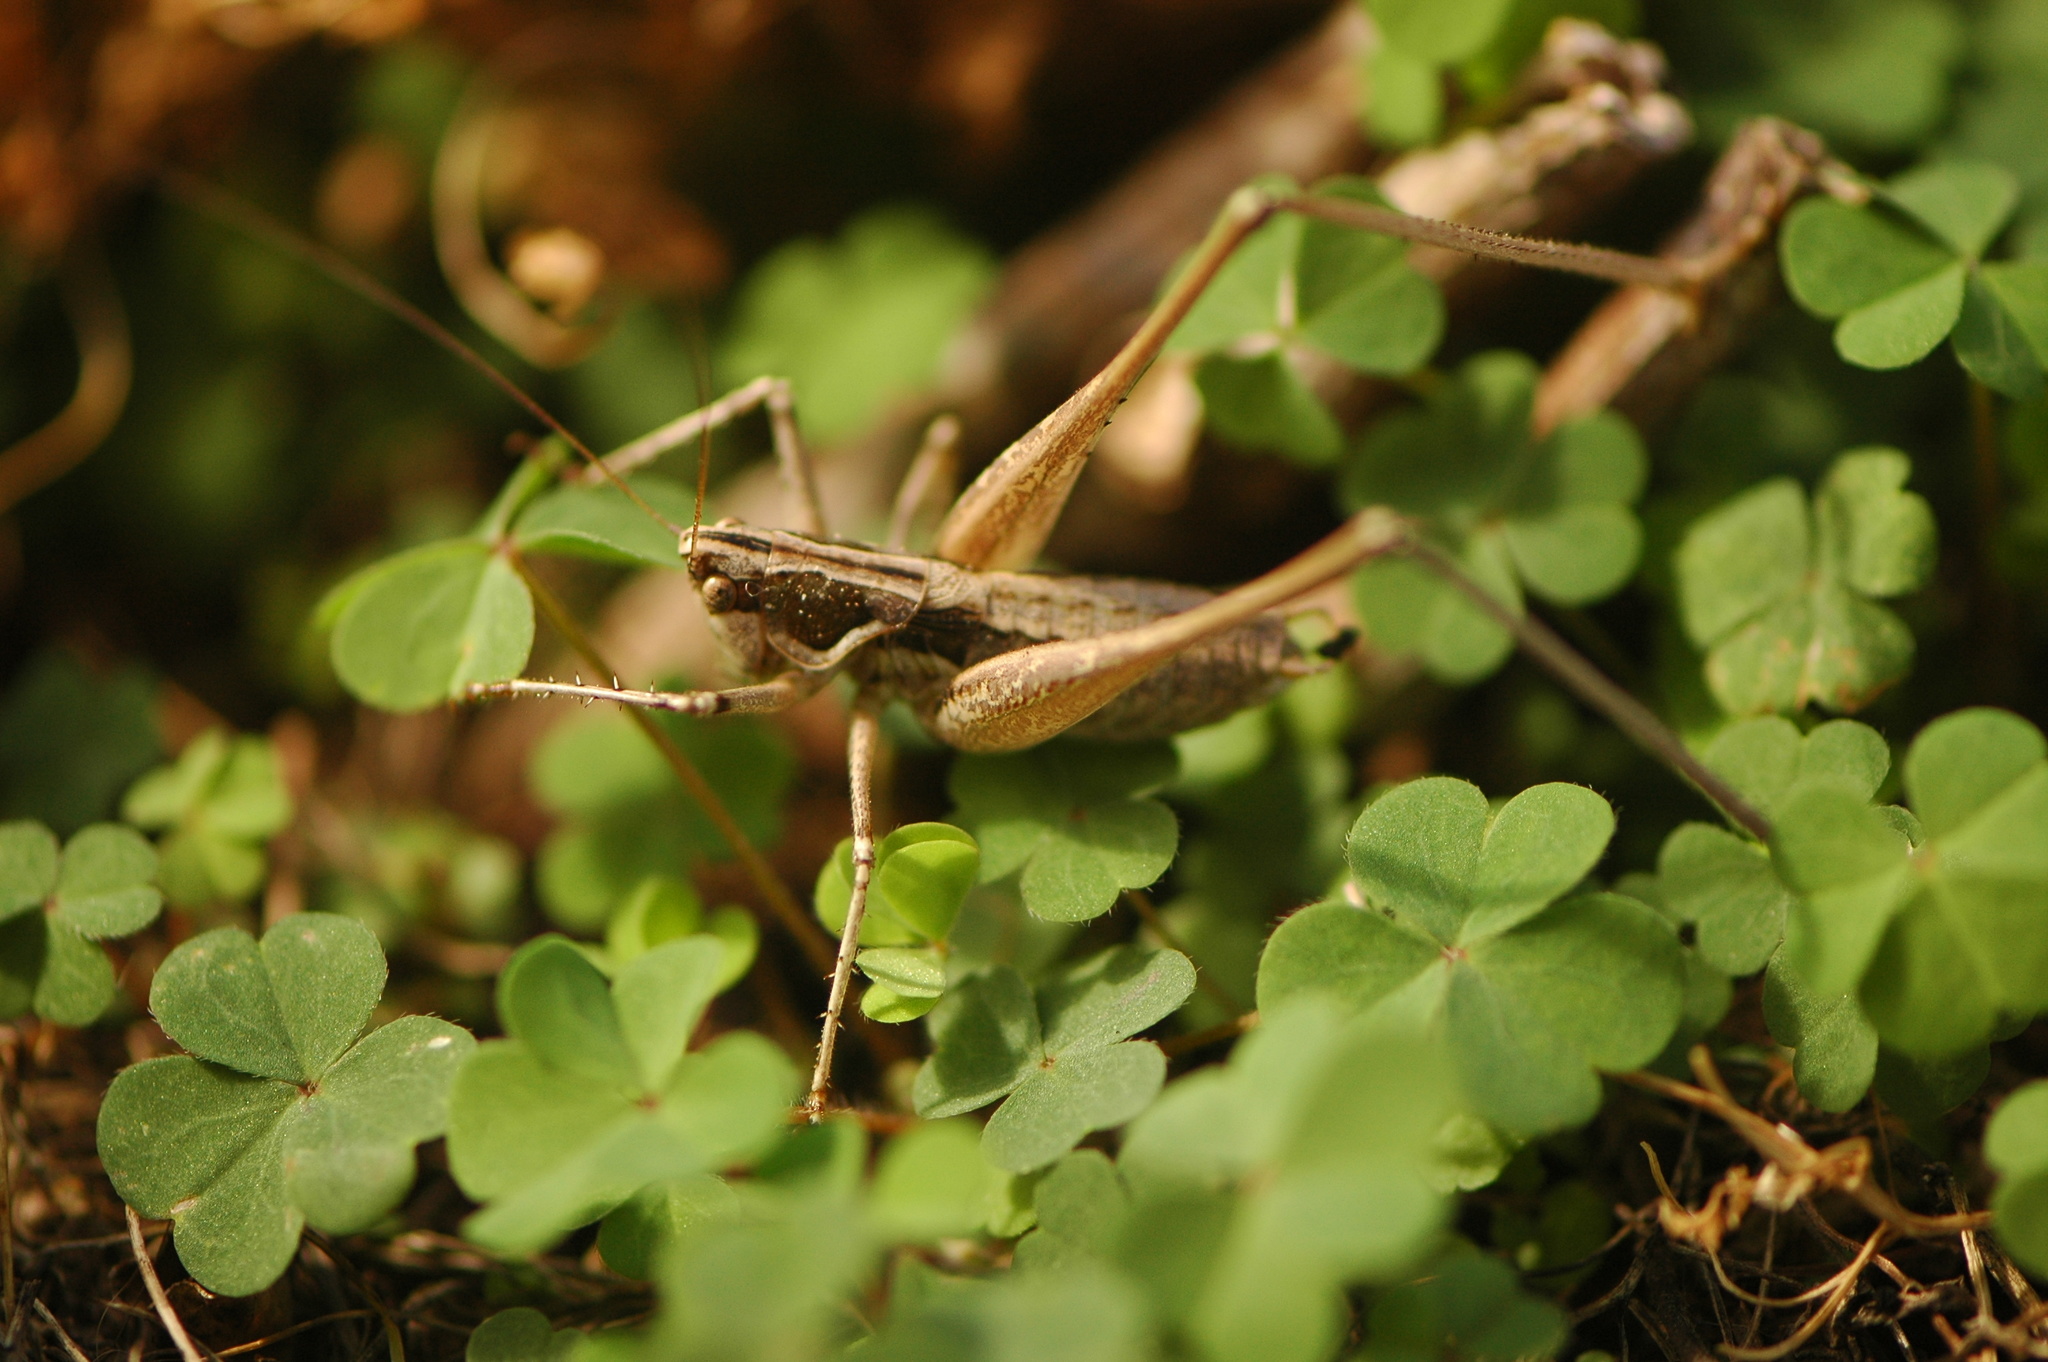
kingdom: Animalia
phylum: Arthropoda
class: Insecta
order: Orthoptera
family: Tettigoniidae
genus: Pterolepis
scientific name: Pterolepis spoliata
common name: Disarmed bush-cricket
